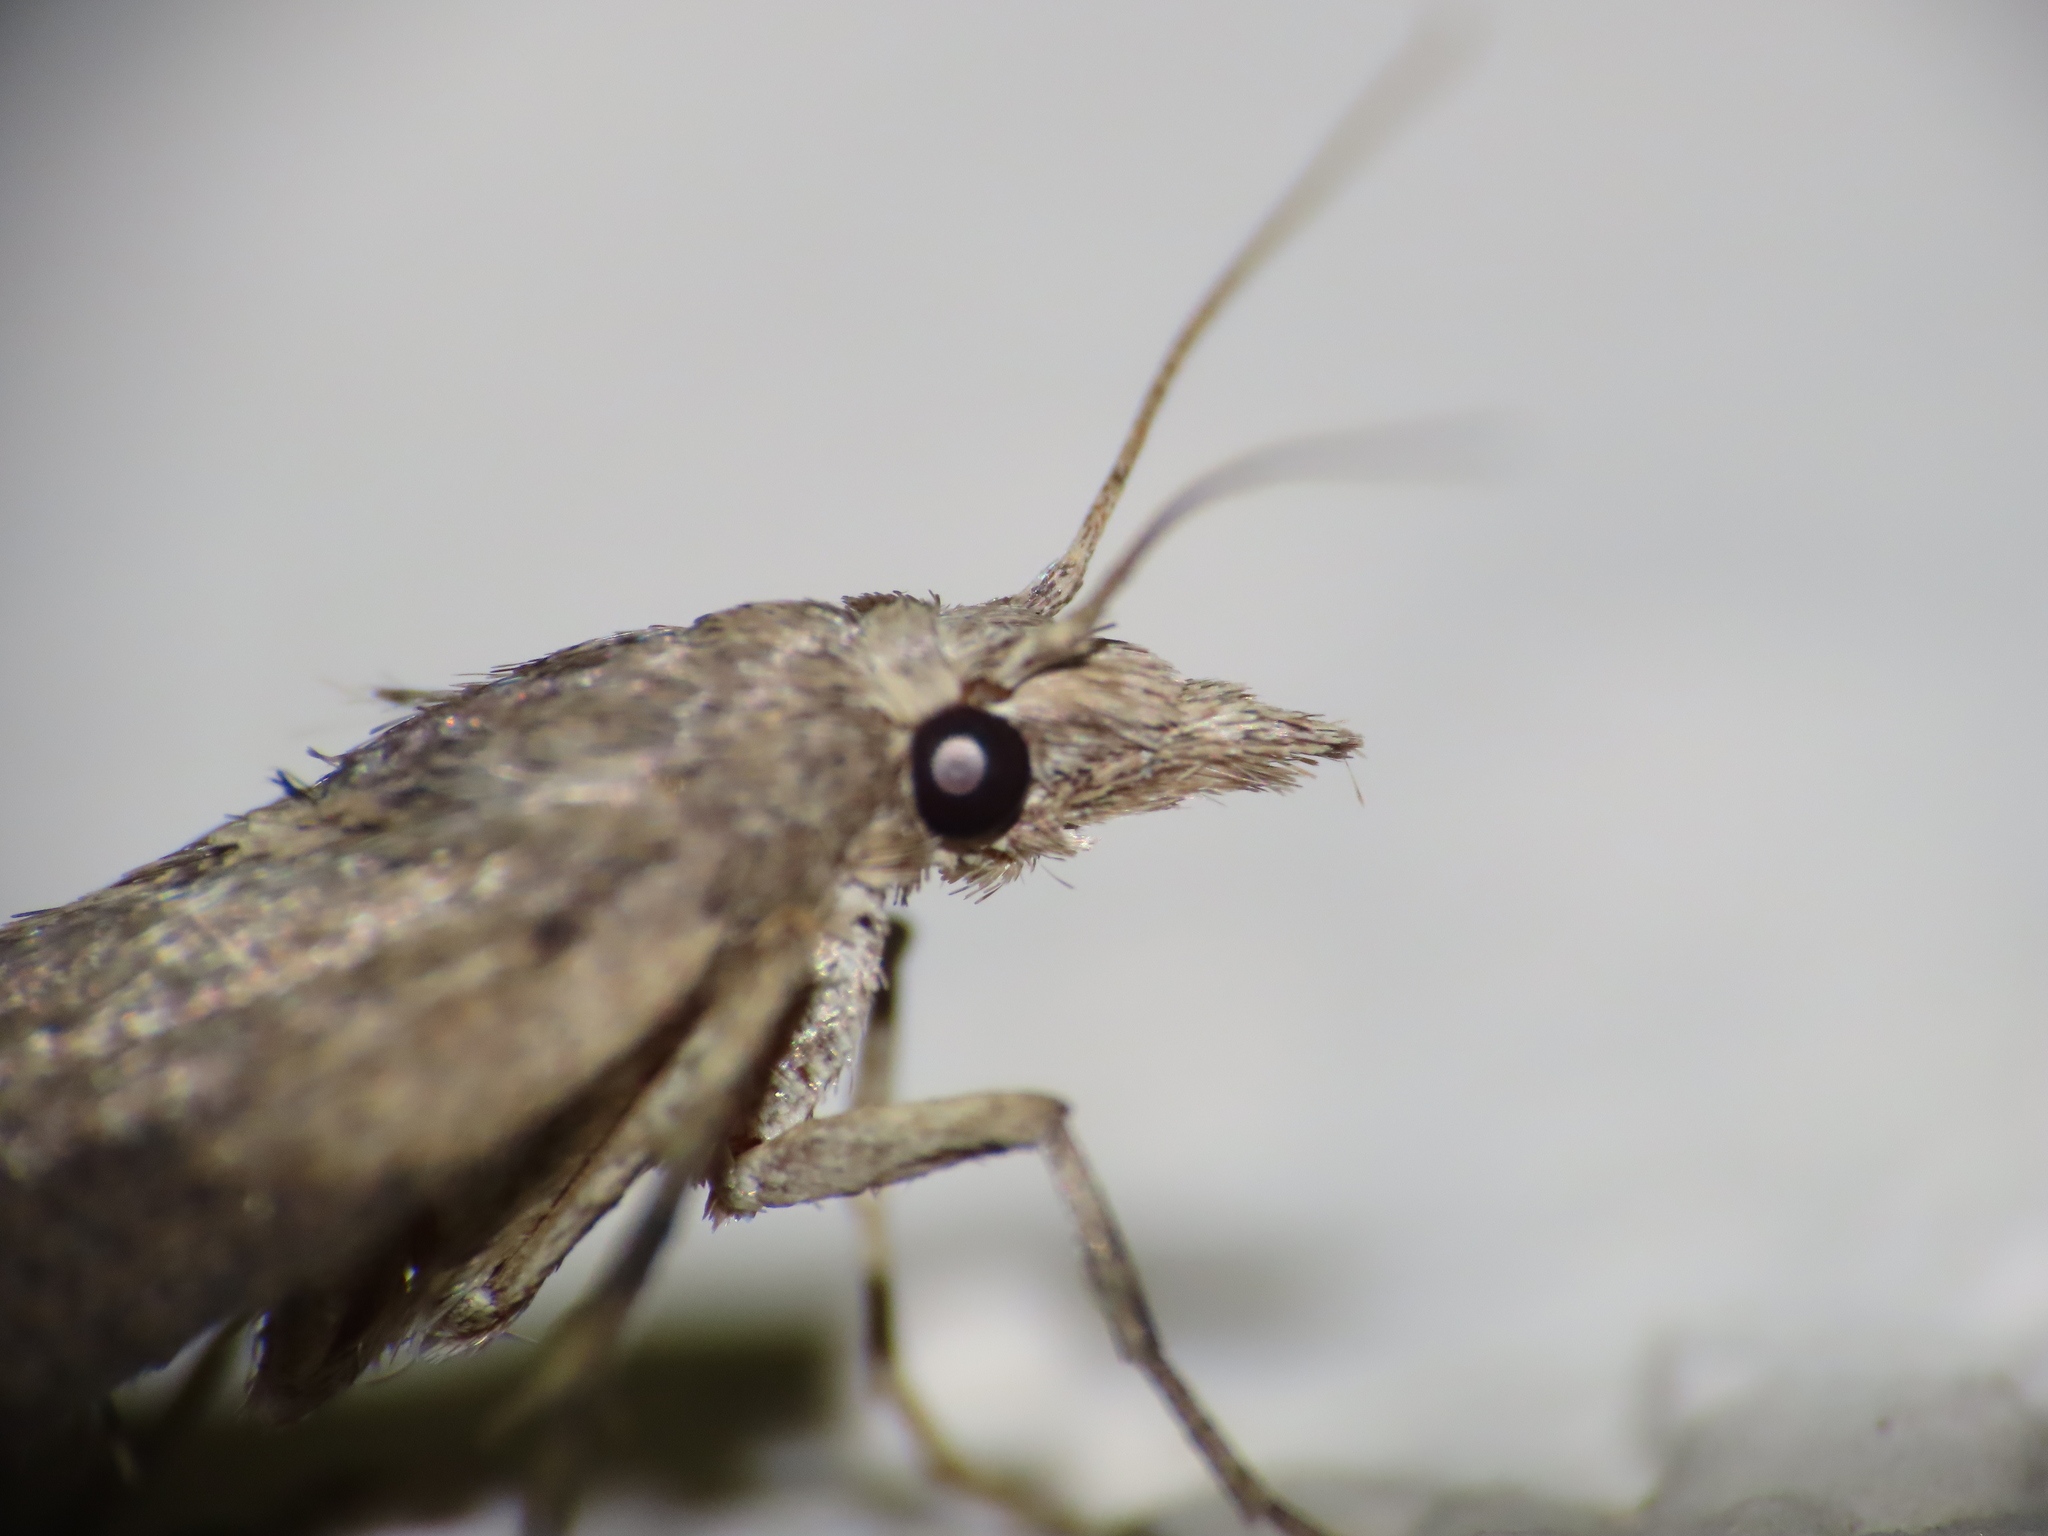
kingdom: Animalia
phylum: Arthropoda
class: Insecta
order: Lepidoptera
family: Pyralidae
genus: Lamoria
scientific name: Lamoria anella
